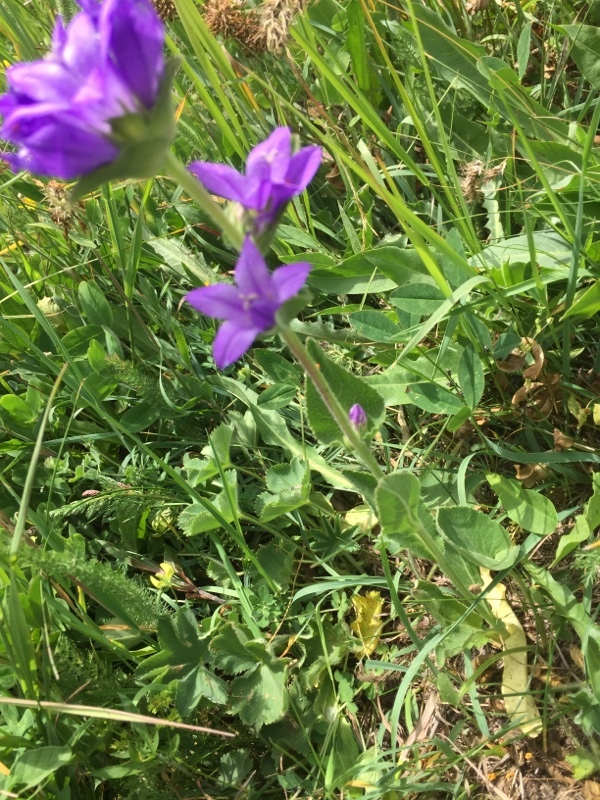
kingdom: Plantae
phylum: Tracheophyta
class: Magnoliopsida
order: Asterales
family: Campanulaceae
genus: Campanula
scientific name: Campanula glomerata
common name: Clustered bellflower
